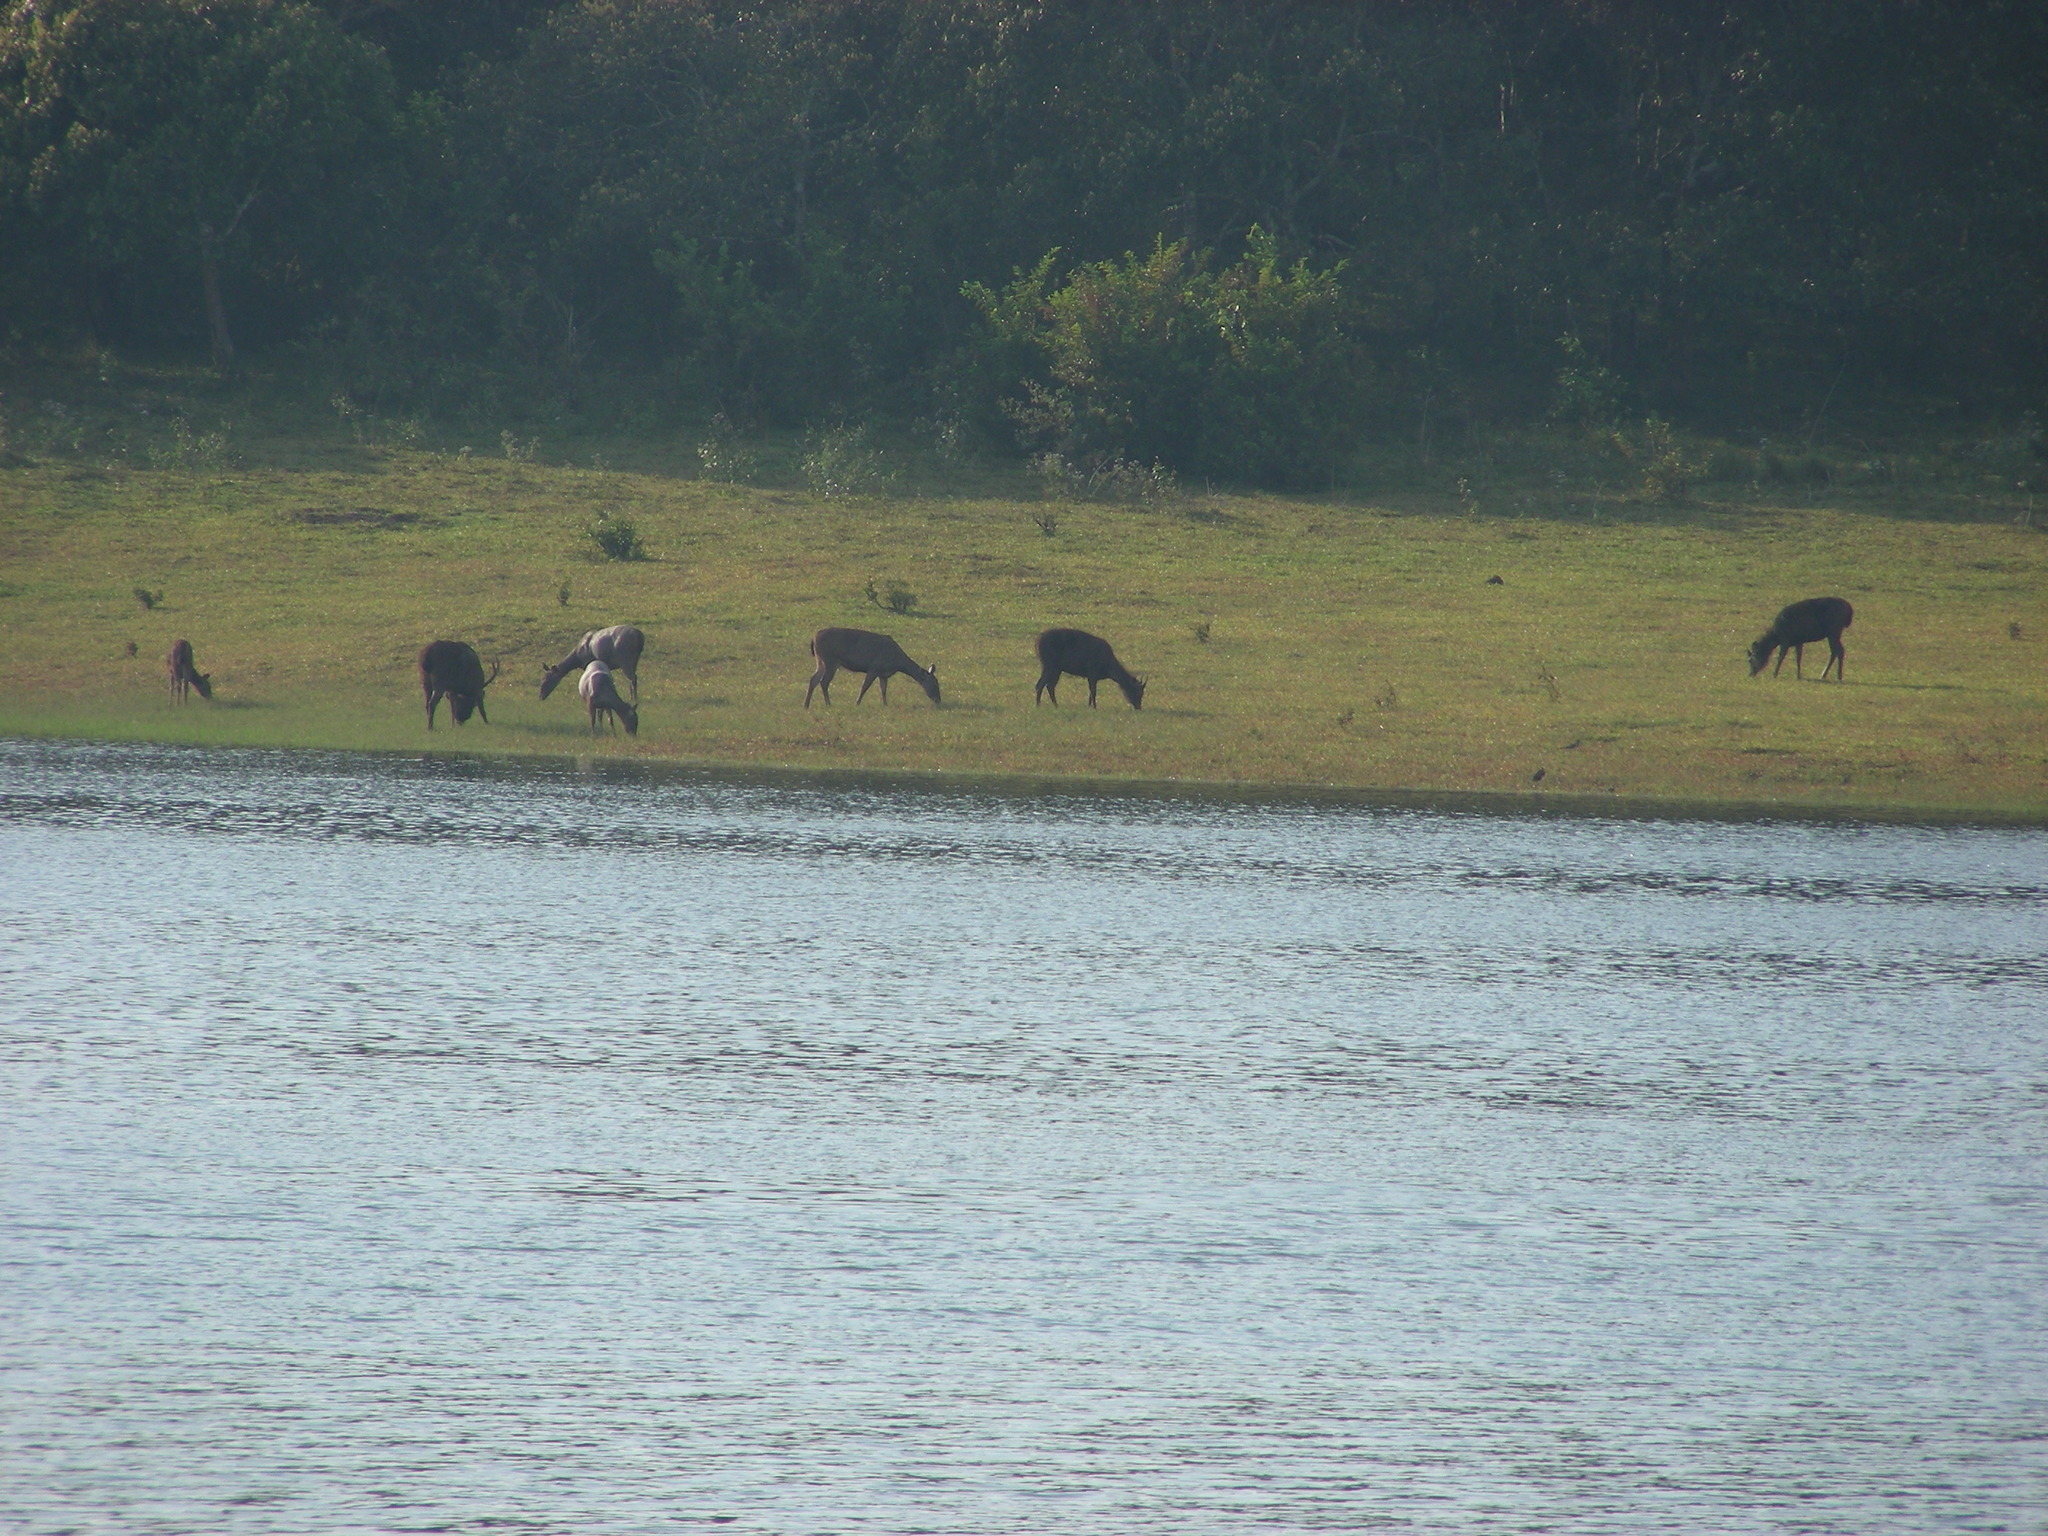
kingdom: Animalia
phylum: Chordata
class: Mammalia
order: Artiodactyla
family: Cervidae
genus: Rusa
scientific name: Rusa unicolor
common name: Sambar
